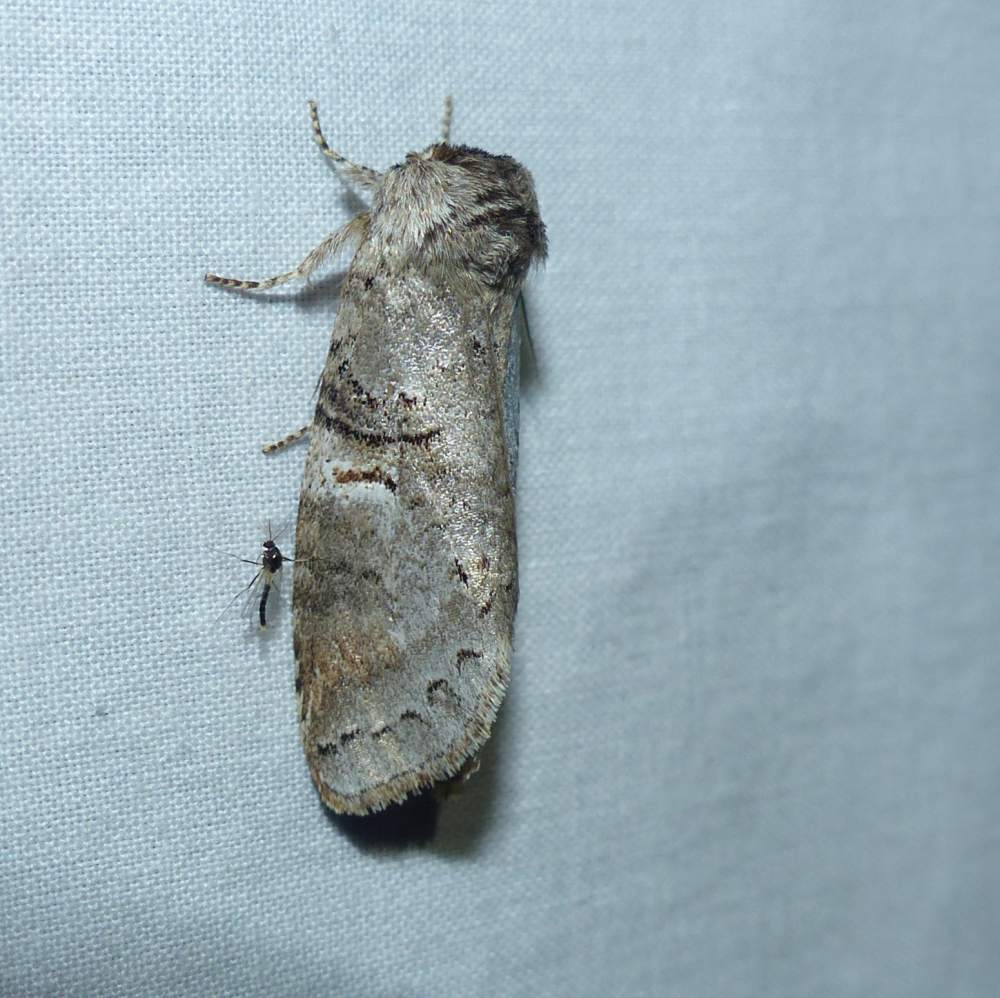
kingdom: Animalia
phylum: Arthropoda
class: Insecta
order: Lepidoptera
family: Notodontidae
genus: Ellida
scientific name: Ellida caniplaga
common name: Linden prominent
